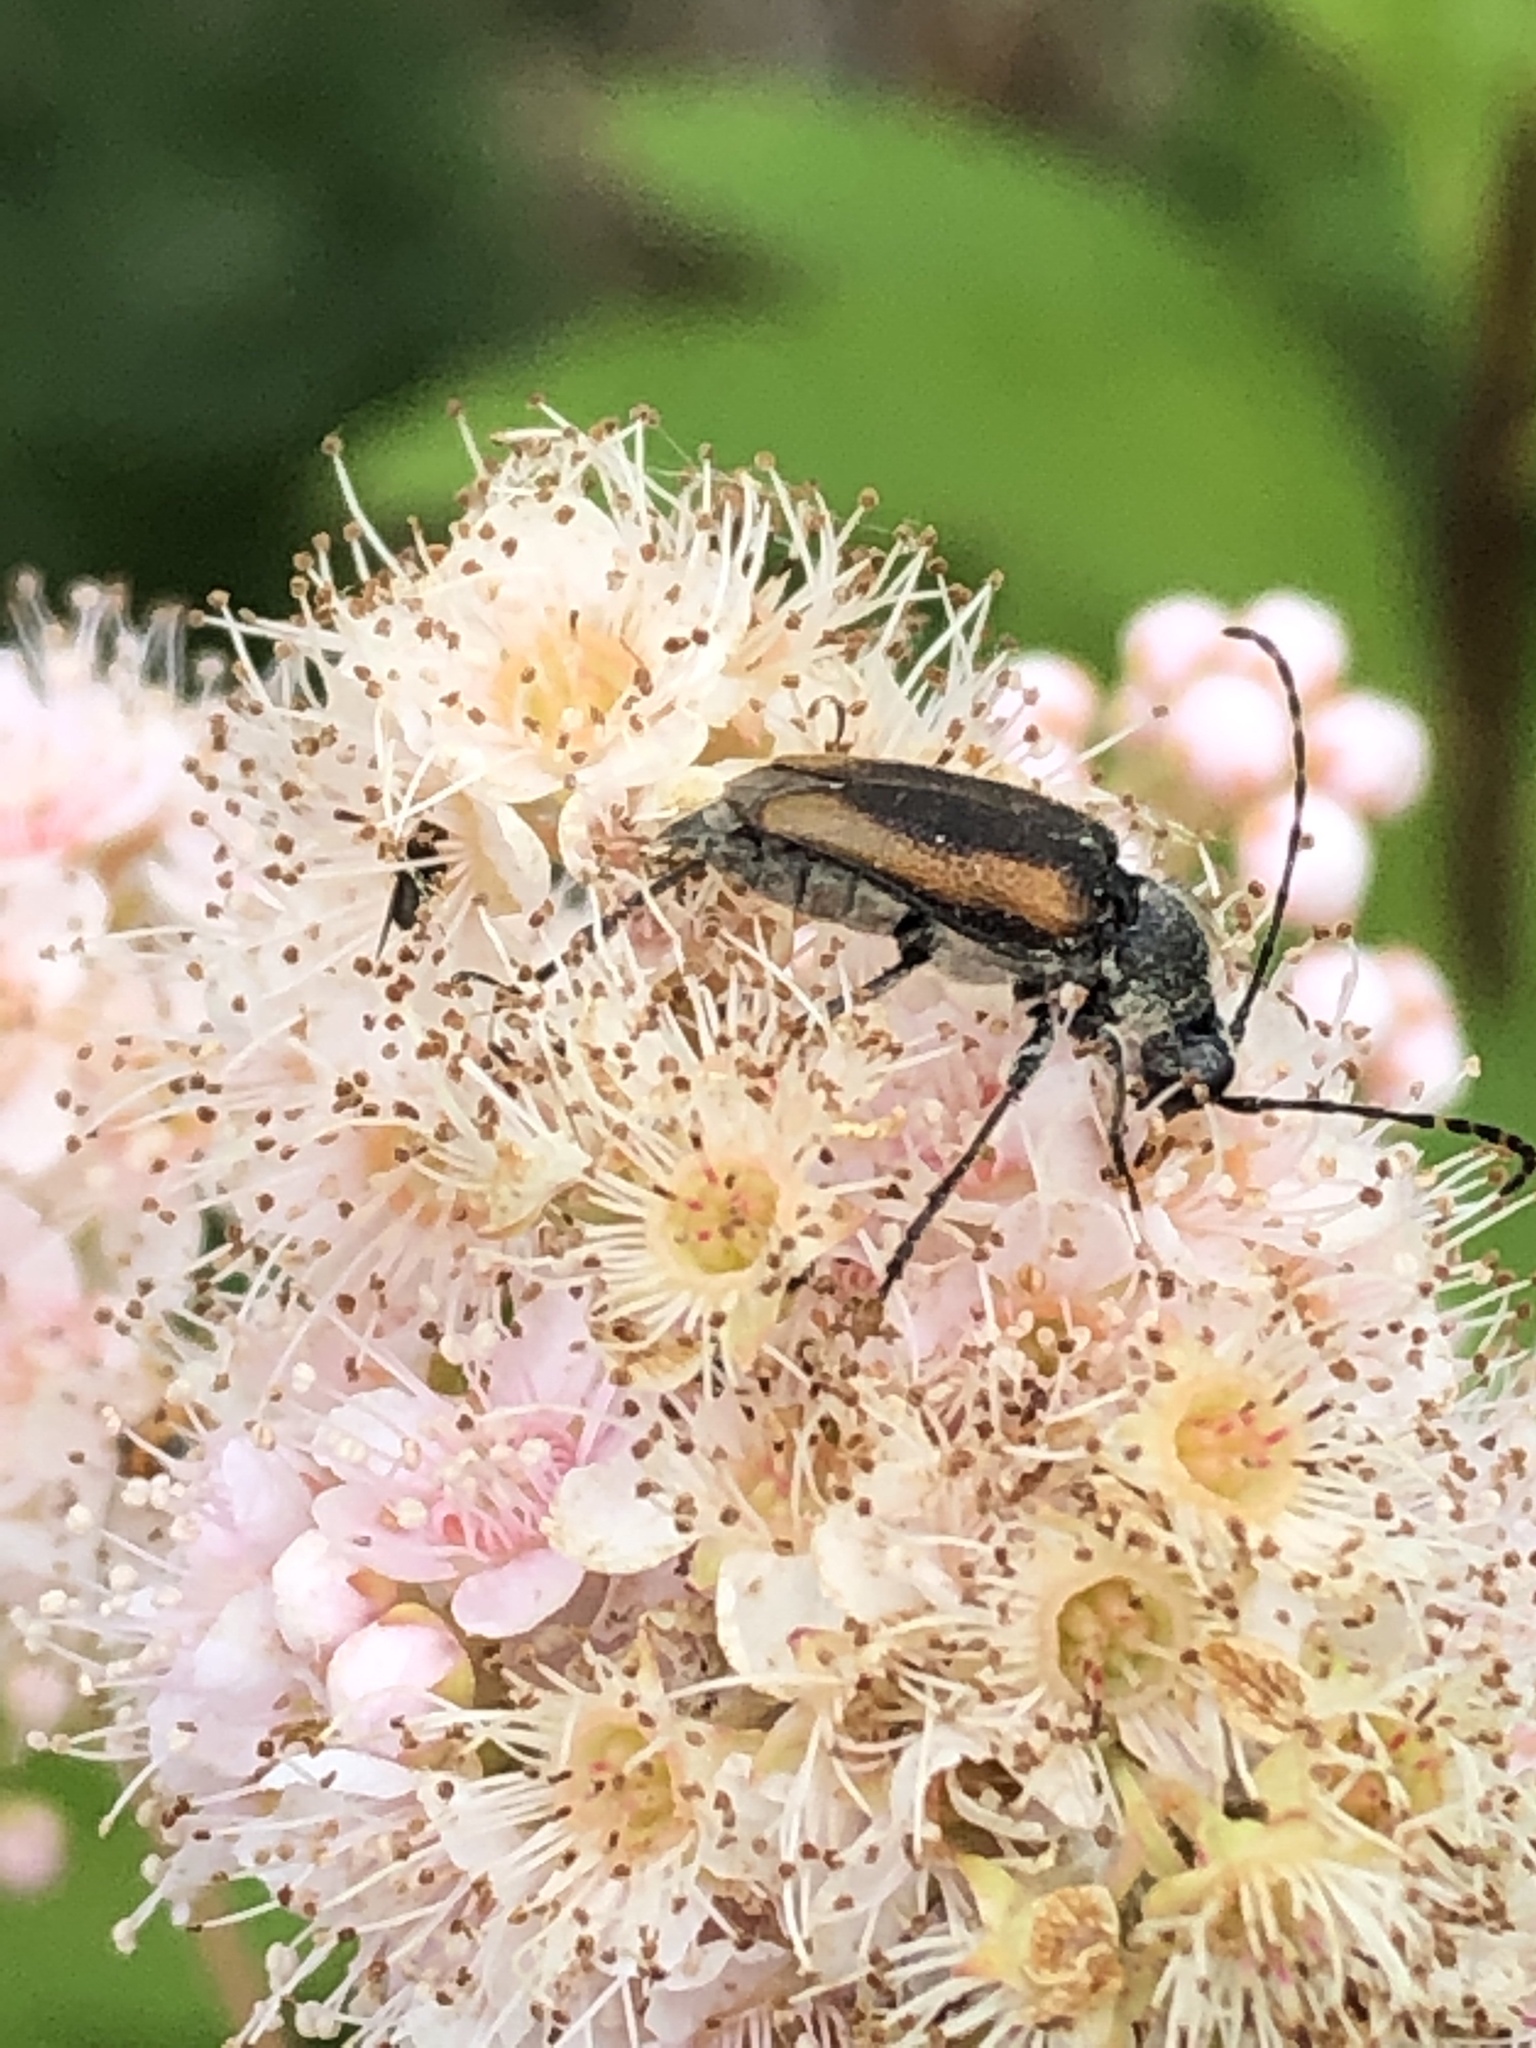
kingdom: Animalia
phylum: Arthropoda
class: Insecta
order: Coleoptera
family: Cerambycidae
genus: Brachyleptura
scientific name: Brachyleptura vagans
